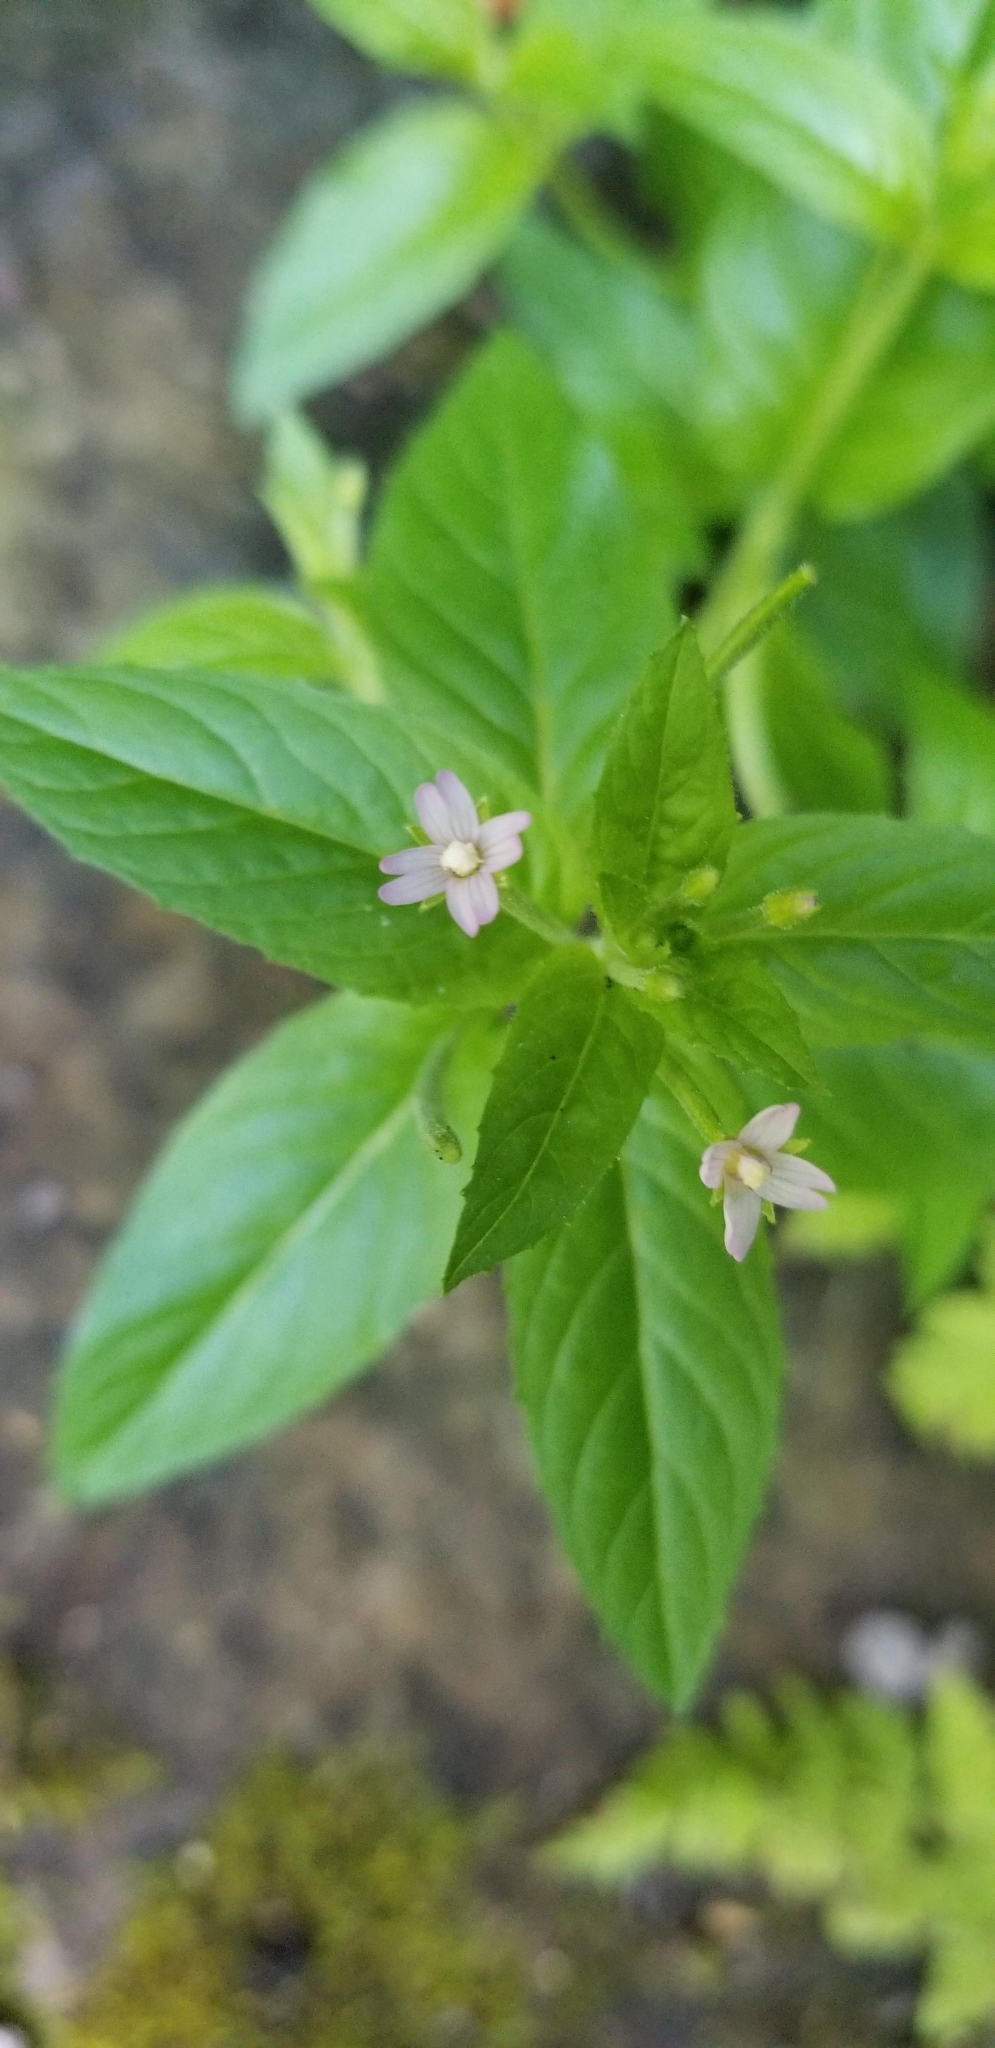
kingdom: Plantae
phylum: Tracheophyta
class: Magnoliopsida
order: Myrtales
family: Onagraceae
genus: Epilobium
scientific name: Epilobium ciliatum
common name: American willowherb
